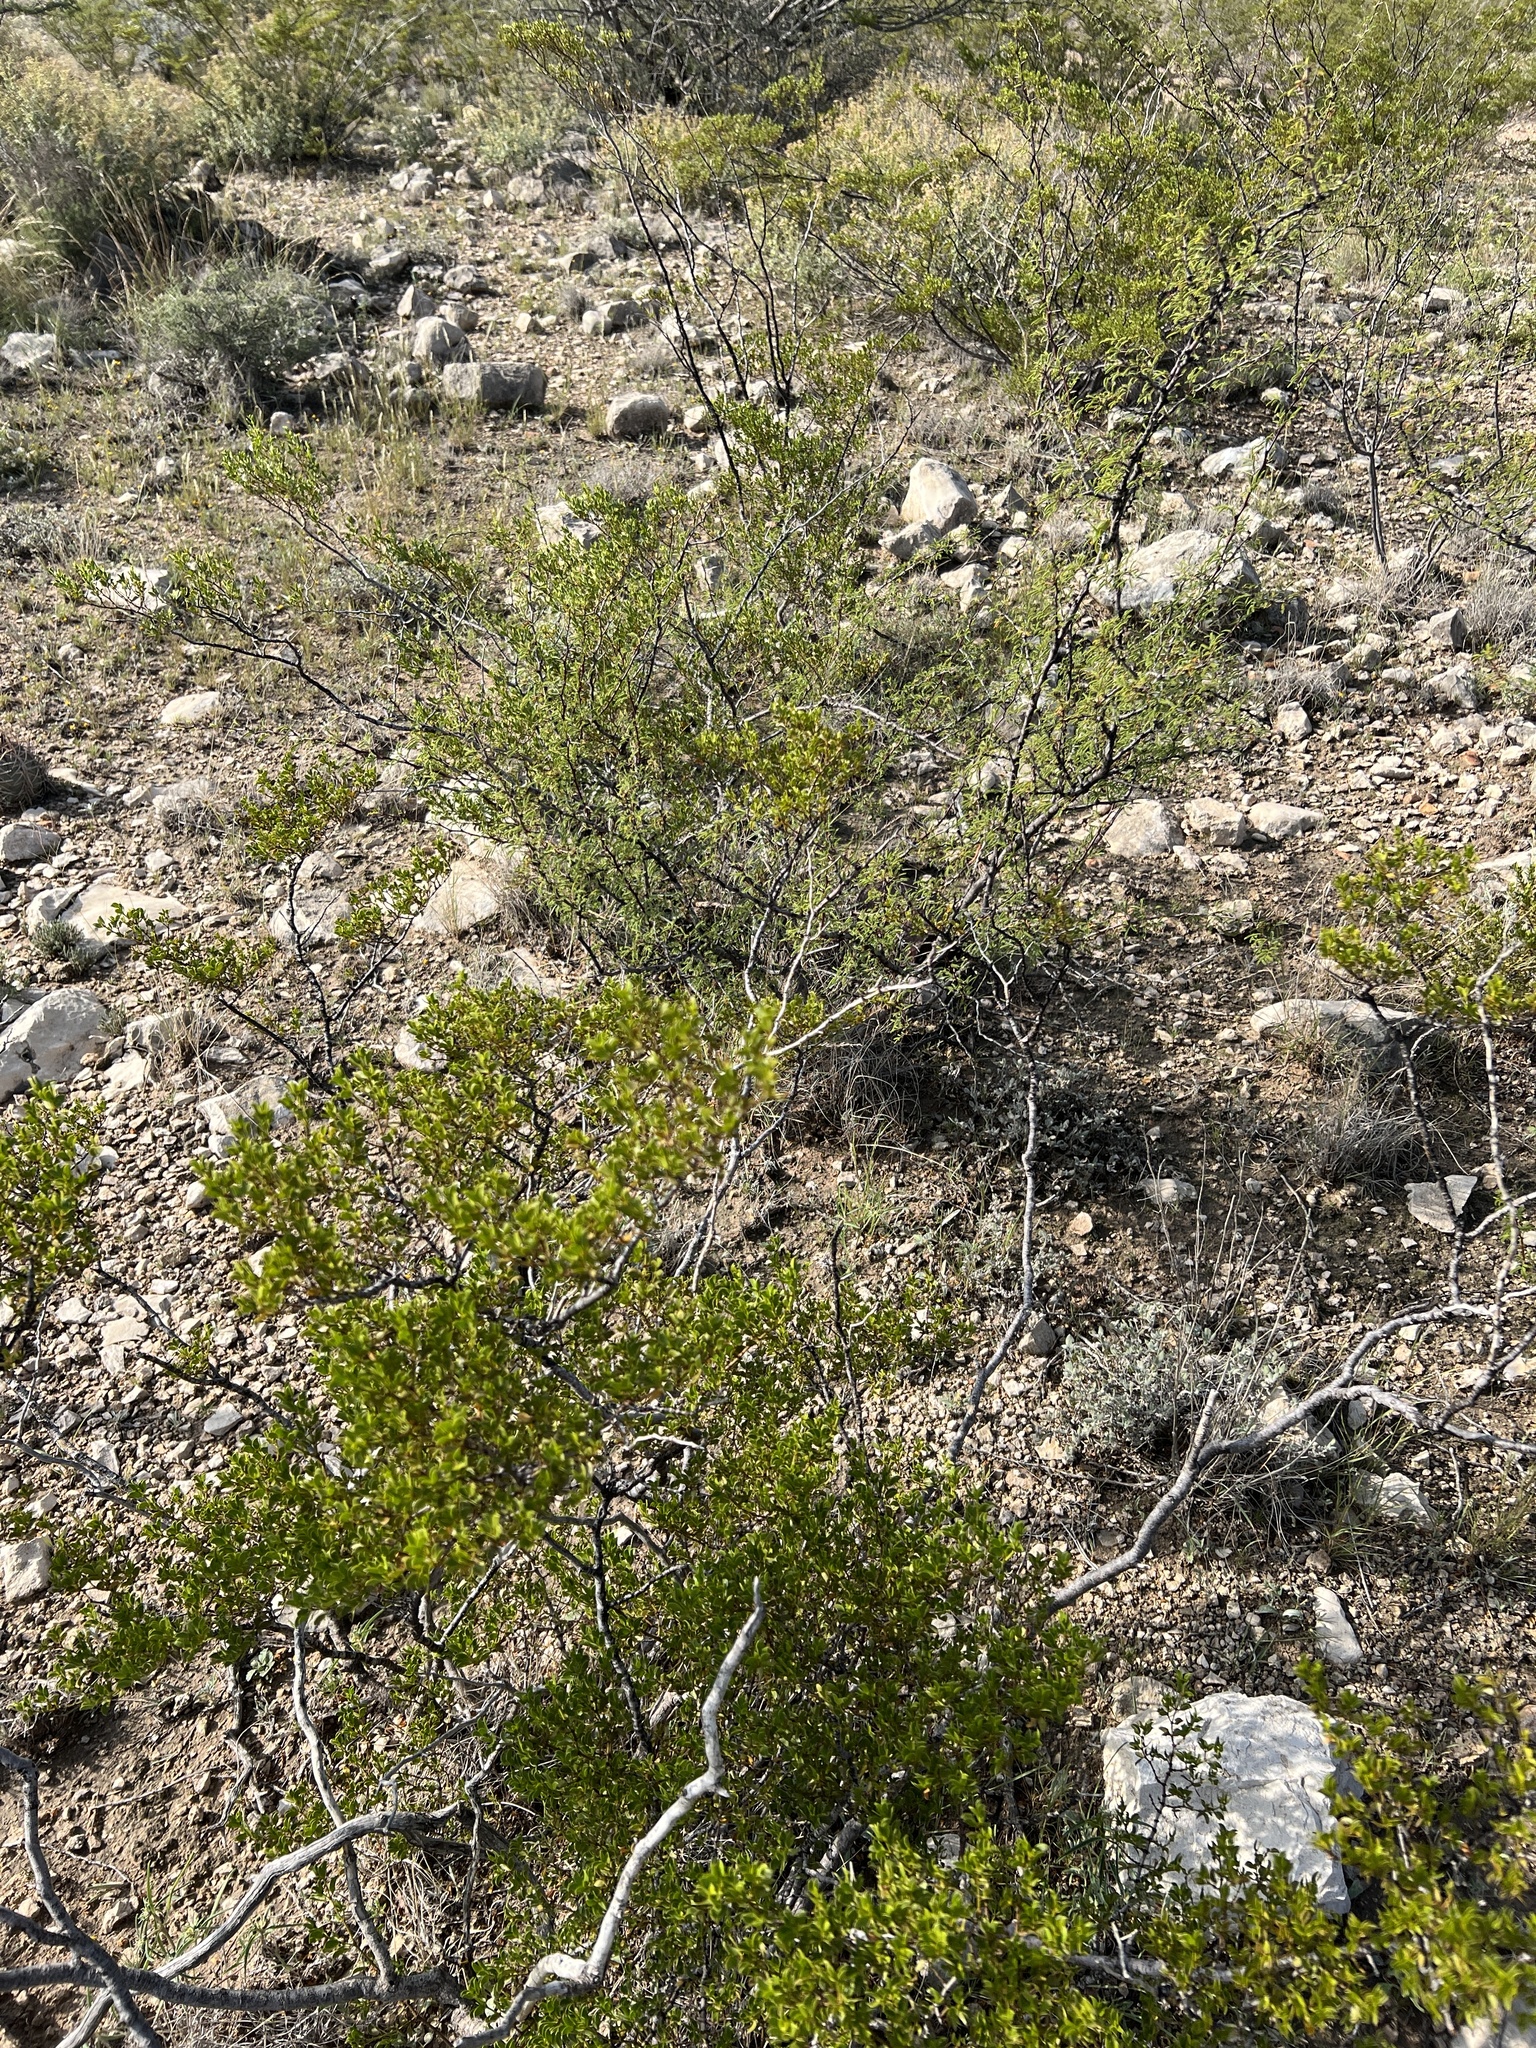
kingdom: Plantae
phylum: Tracheophyta
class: Magnoliopsida
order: Zygophyllales
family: Zygophyllaceae
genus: Larrea
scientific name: Larrea tridentata
